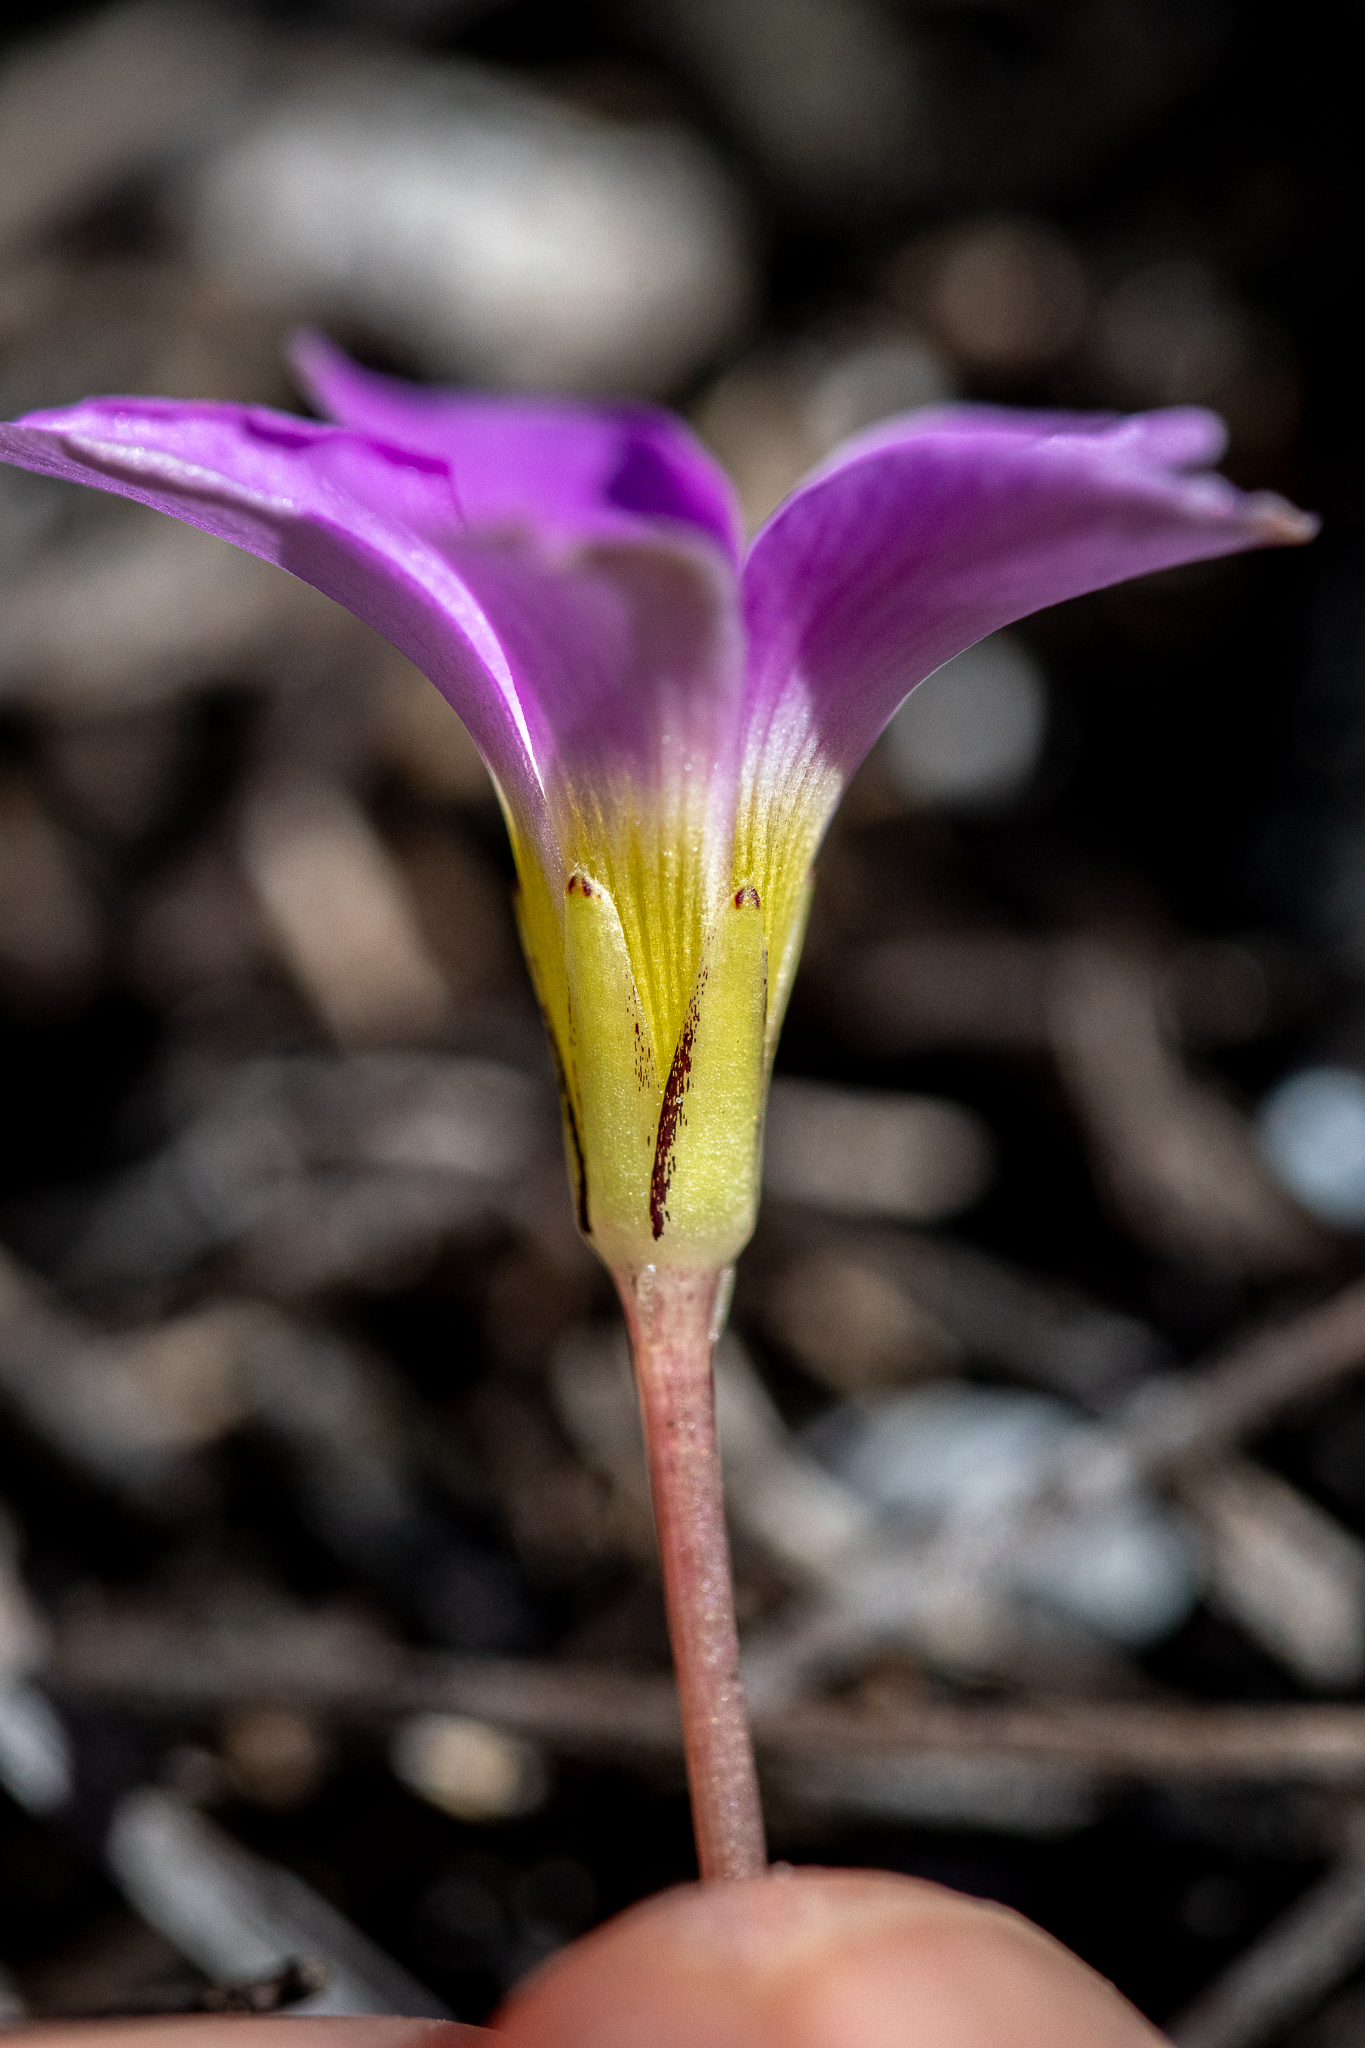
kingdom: Plantae
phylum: Tracheophyta
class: Magnoliopsida
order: Oxalidales
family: Oxalidaceae
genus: Oxalis
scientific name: Oxalis depressa
